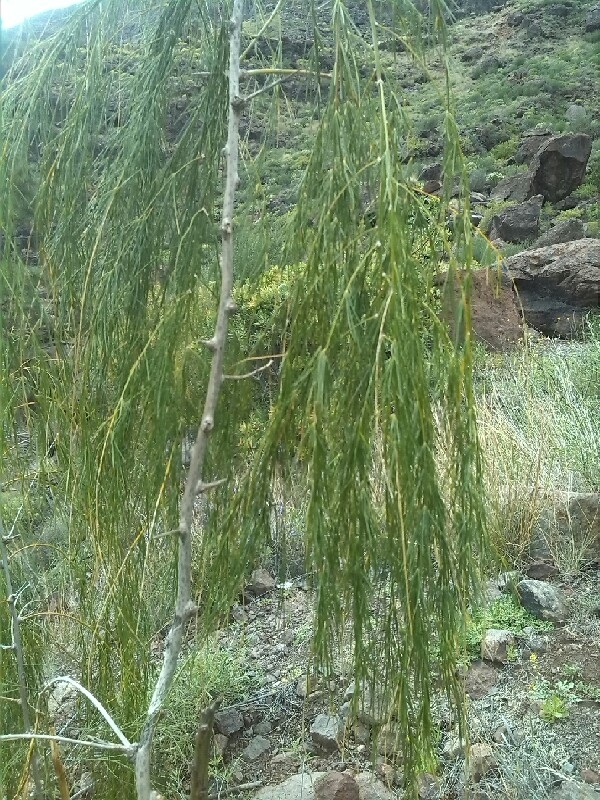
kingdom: Plantae
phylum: Tracheophyta
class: Liliopsida
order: Asparagales
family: Asparagaceae
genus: Asparagus
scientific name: Asparagus plocamoides
